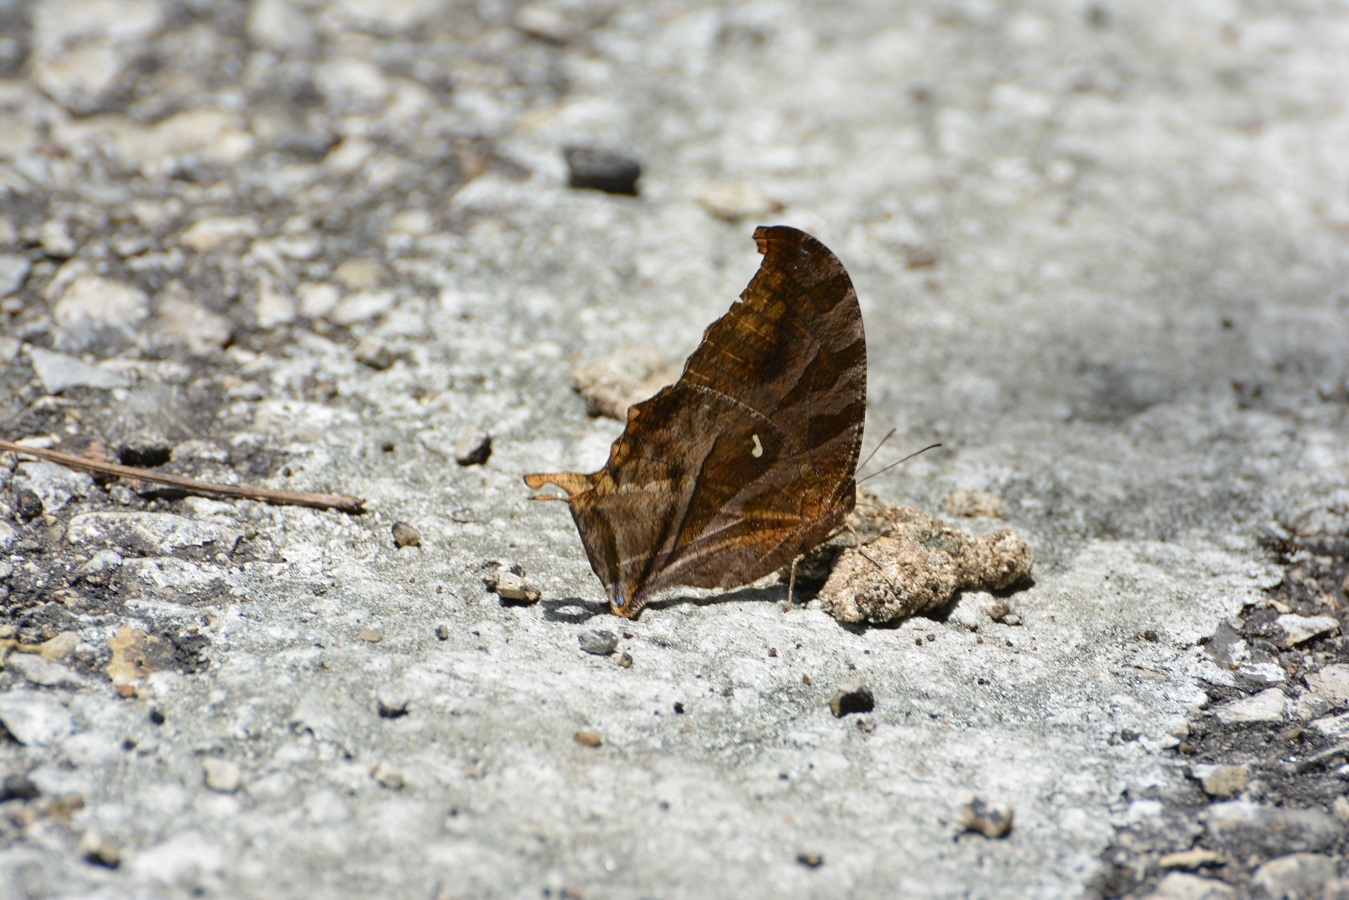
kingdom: Animalia
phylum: Arthropoda
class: Insecta
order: Lepidoptera
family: Nymphalidae
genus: Consul
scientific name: Consul excellens
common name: Black-veined leafwing
